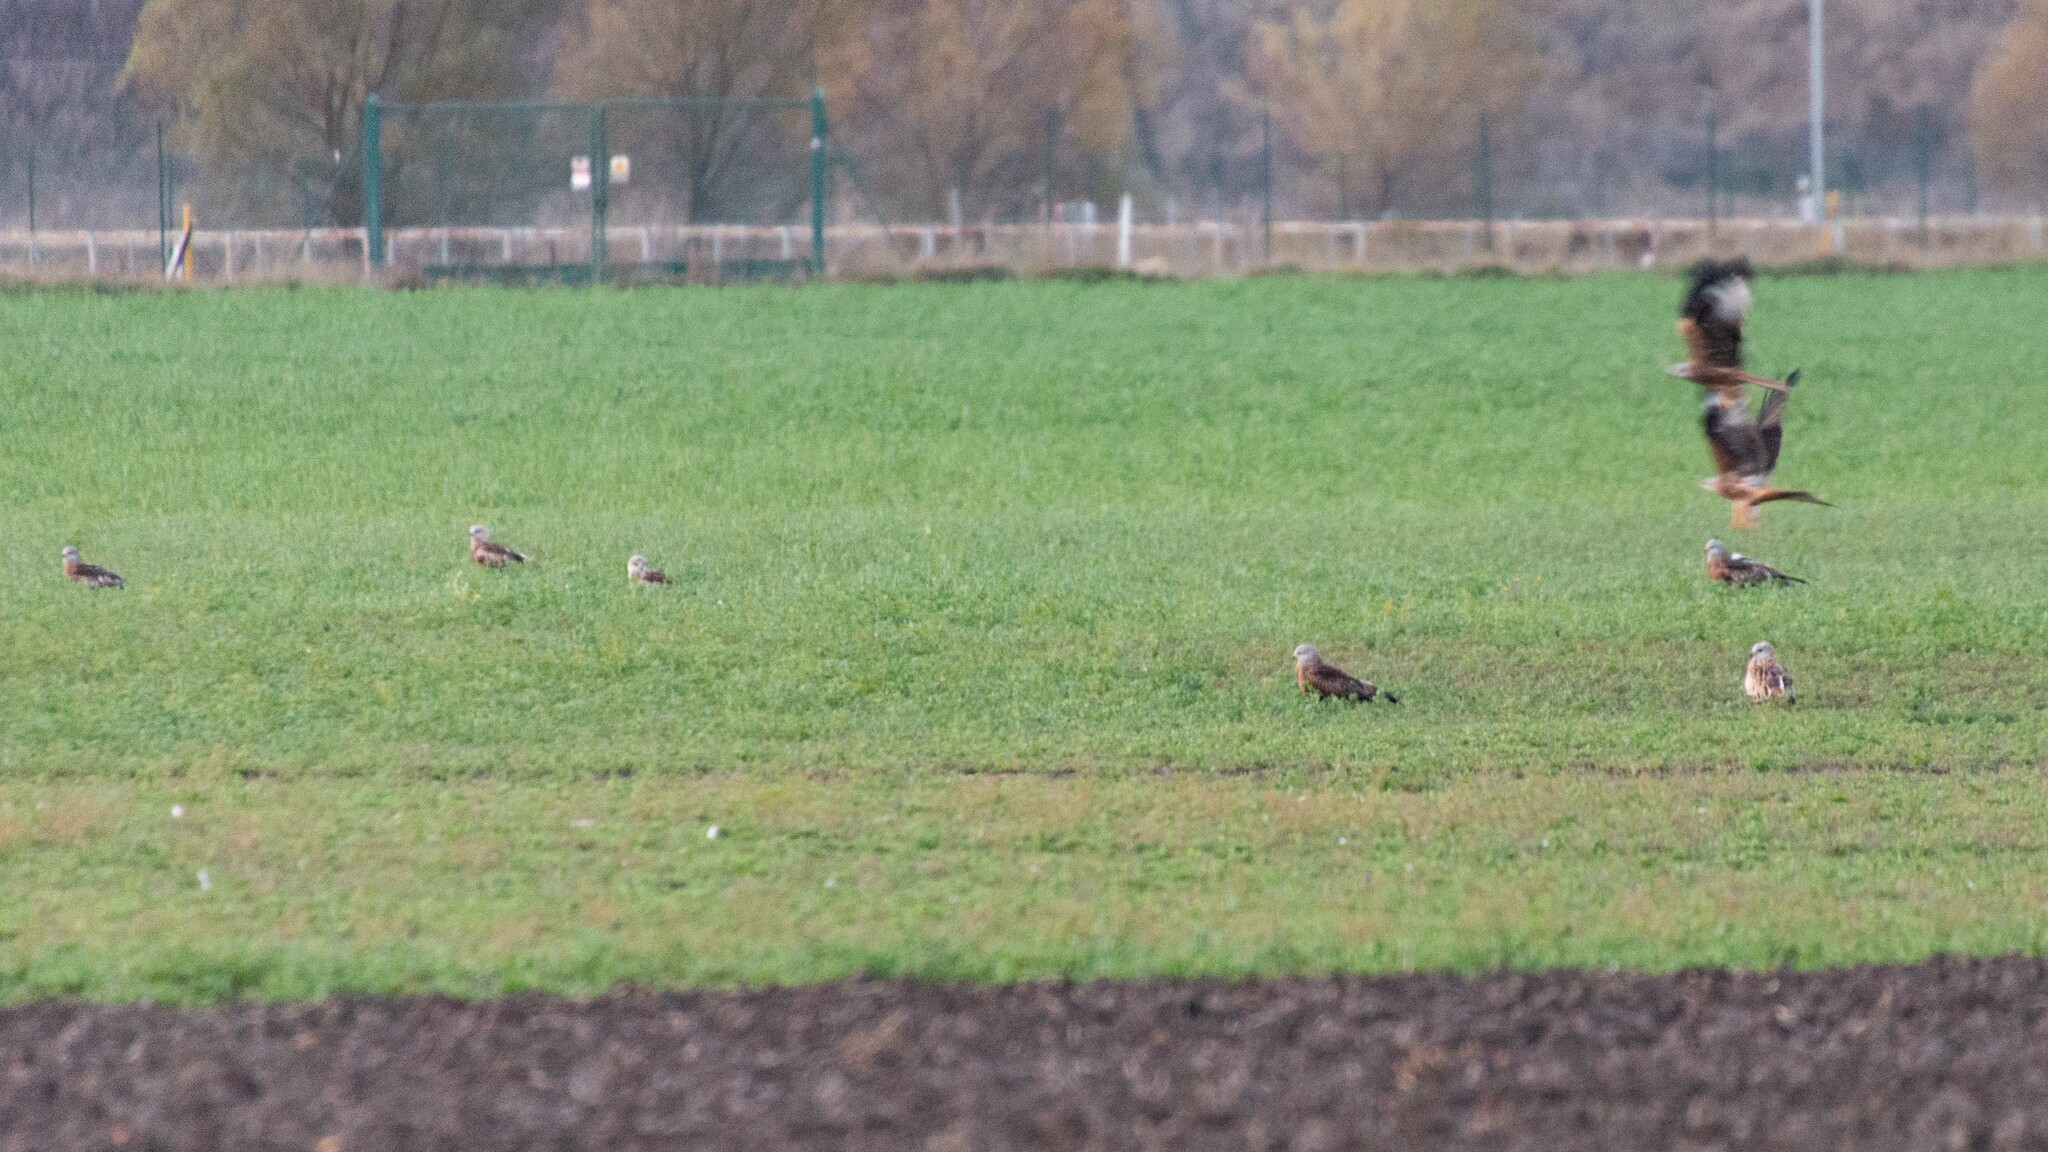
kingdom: Animalia
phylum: Chordata
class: Aves
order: Accipitriformes
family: Accipitridae
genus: Milvus
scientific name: Milvus milvus
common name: Red kite
